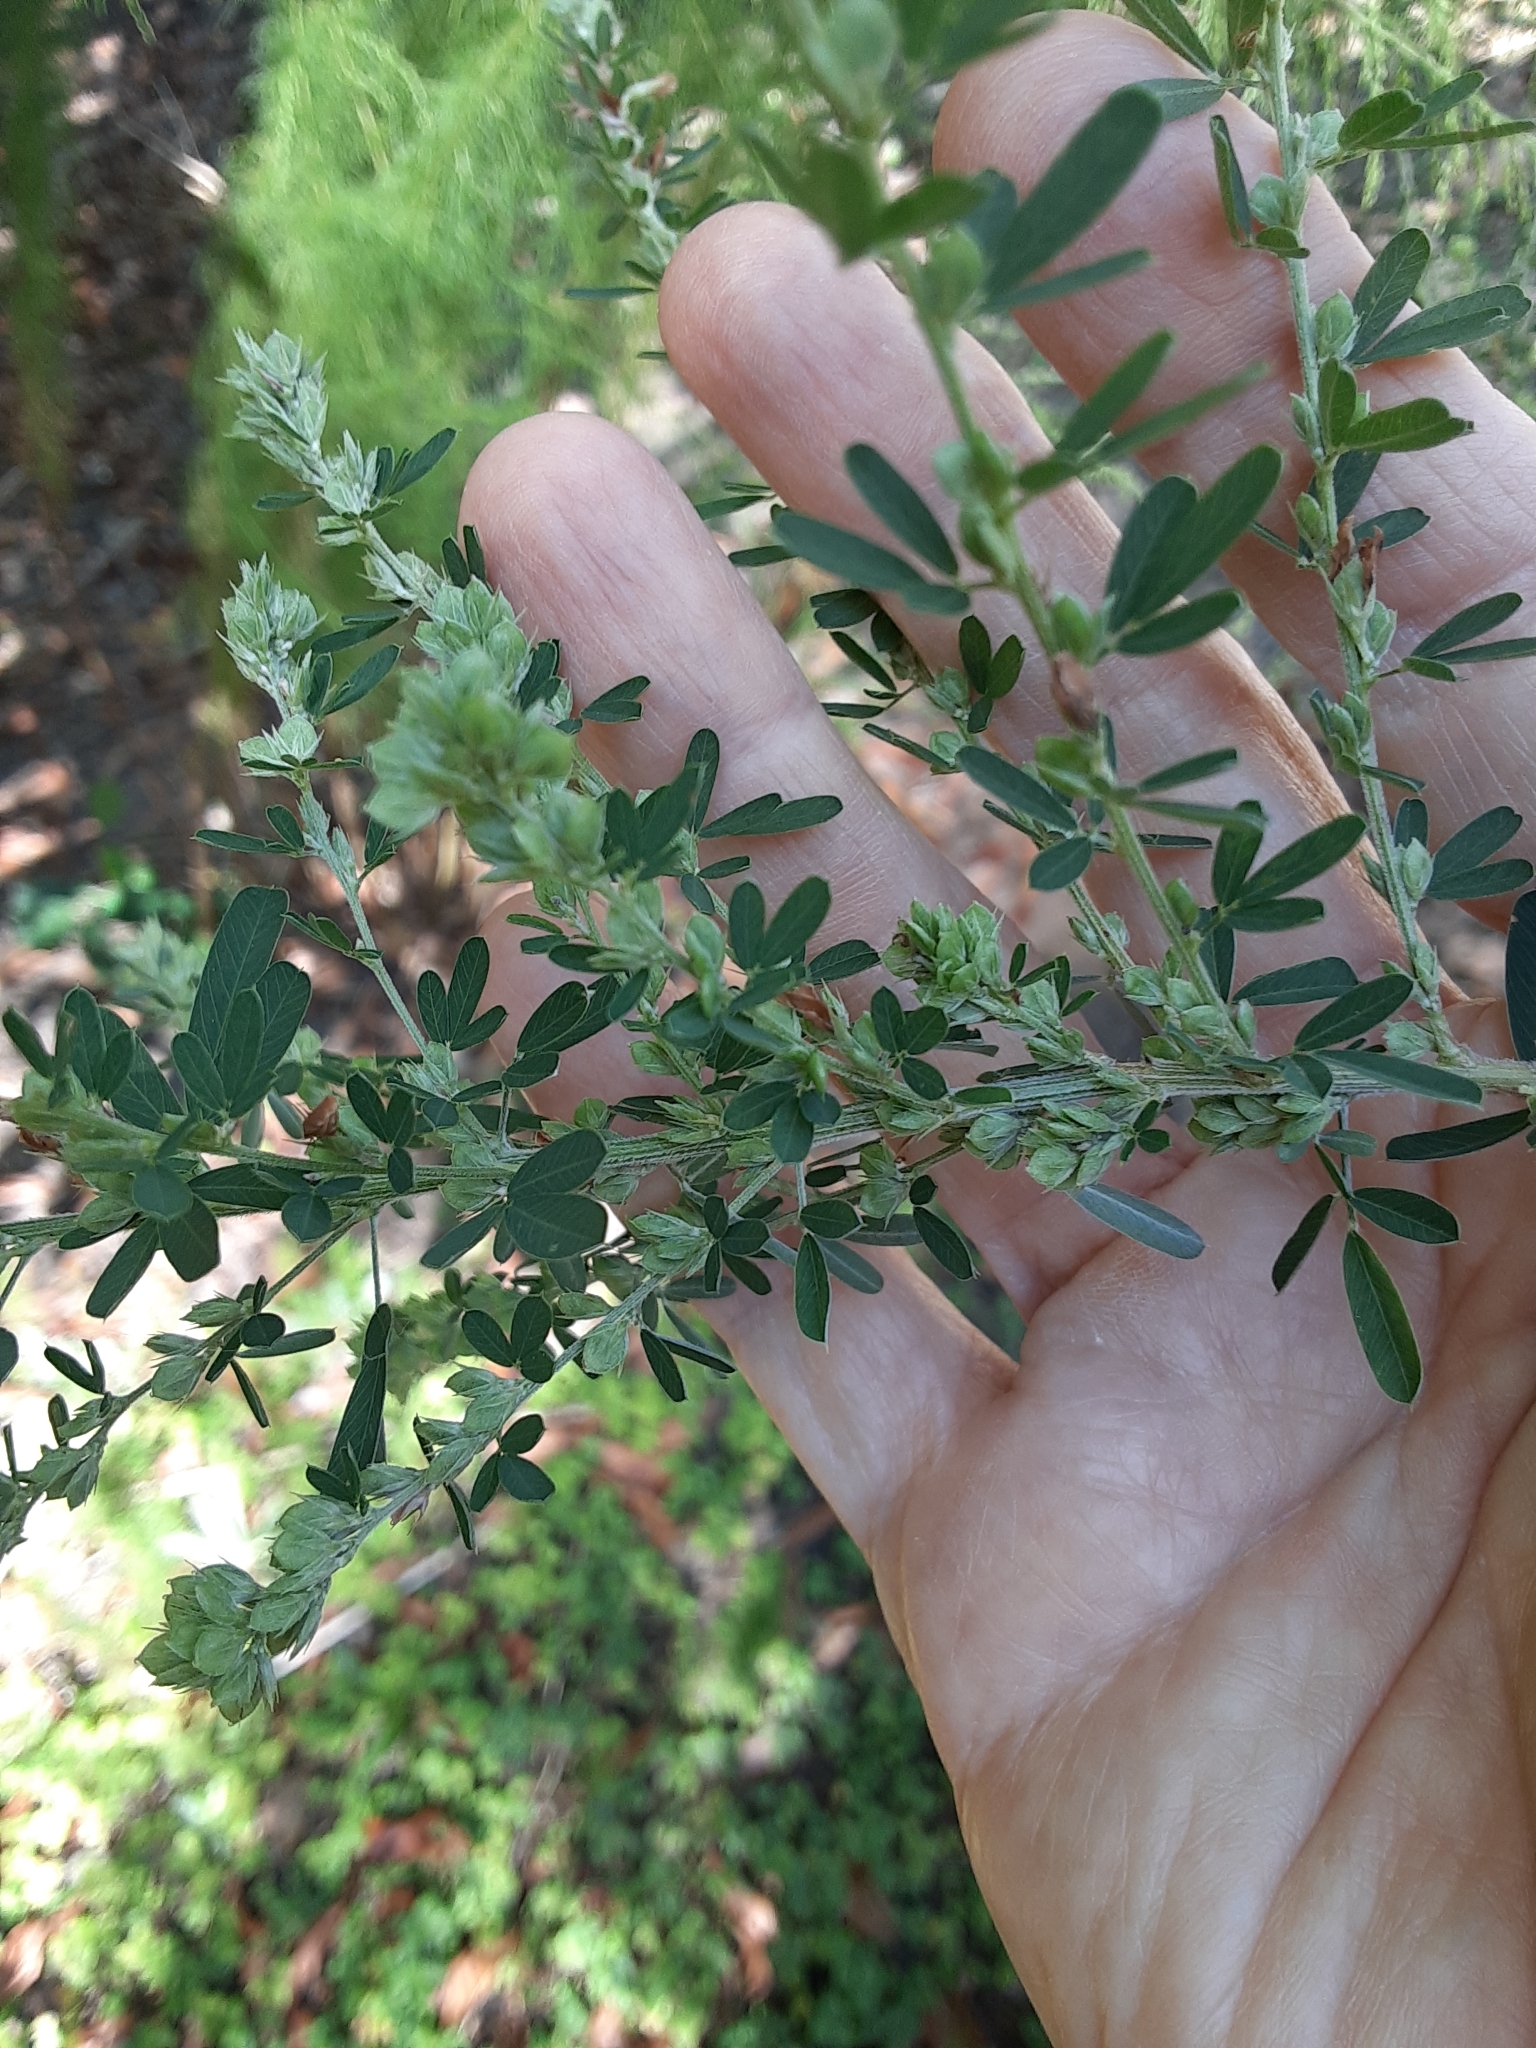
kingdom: Plantae
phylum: Tracheophyta
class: Magnoliopsida
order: Fabales
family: Fabaceae
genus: Lespedeza
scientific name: Lespedeza cuneata
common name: Chinese bush-clover
